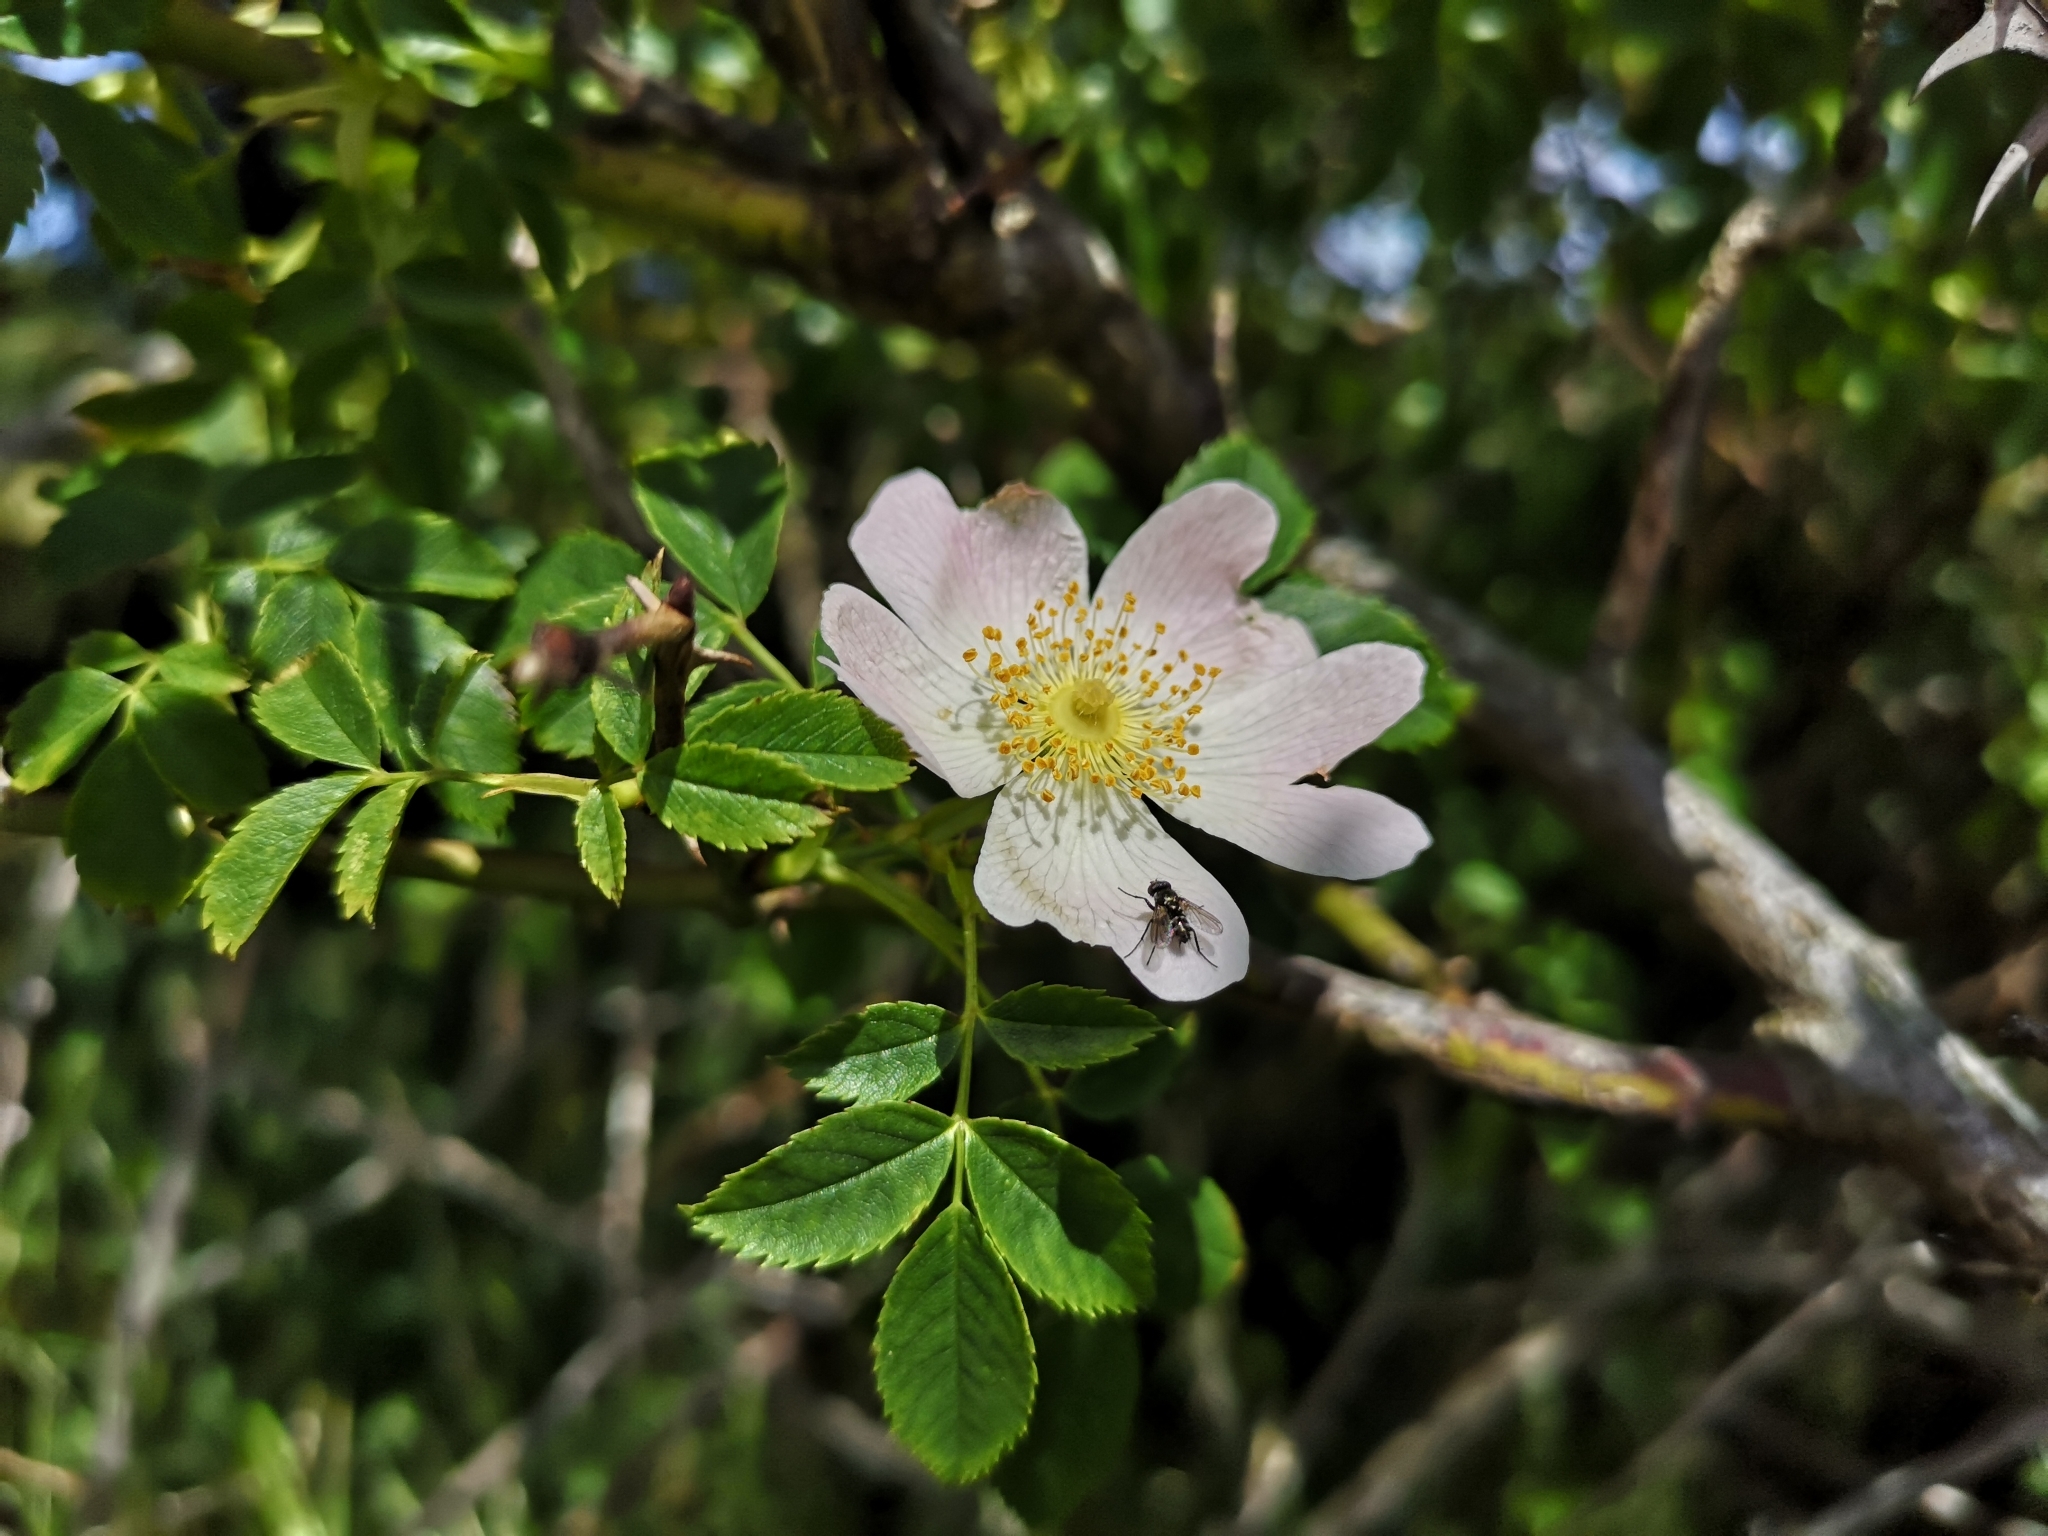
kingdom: Plantae
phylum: Tracheophyta
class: Magnoliopsida
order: Rosales
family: Rosaceae
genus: Rosa
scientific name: Rosa canina
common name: Dog rose
